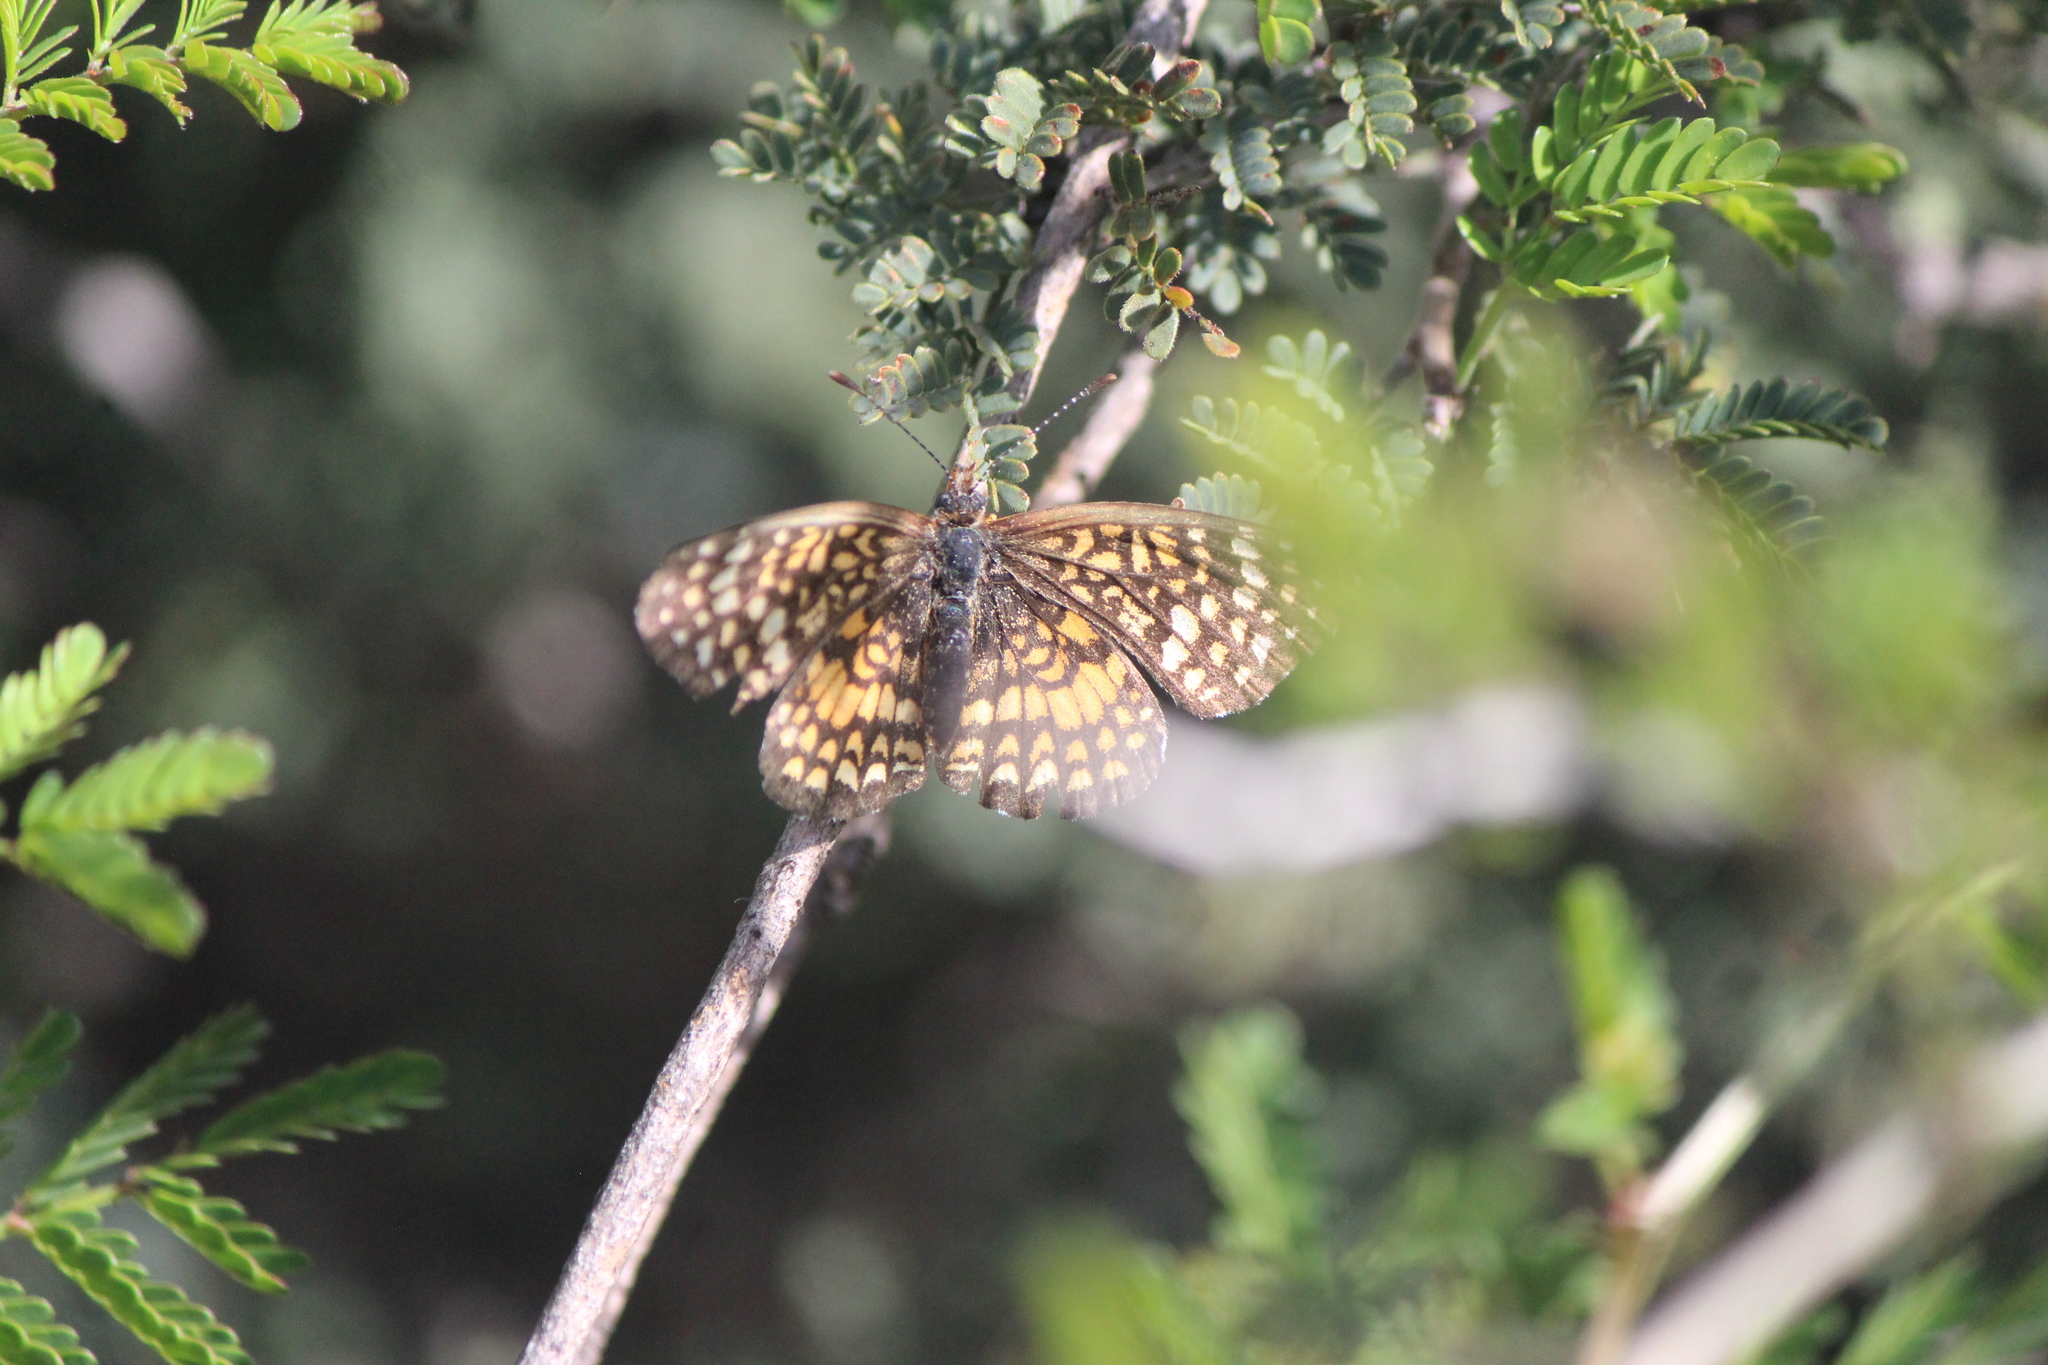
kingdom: Animalia
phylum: Arthropoda
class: Insecta
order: Lepidoptera
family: Nymphalidae
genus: Texola
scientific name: Texola elada
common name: Elada checkerspot
